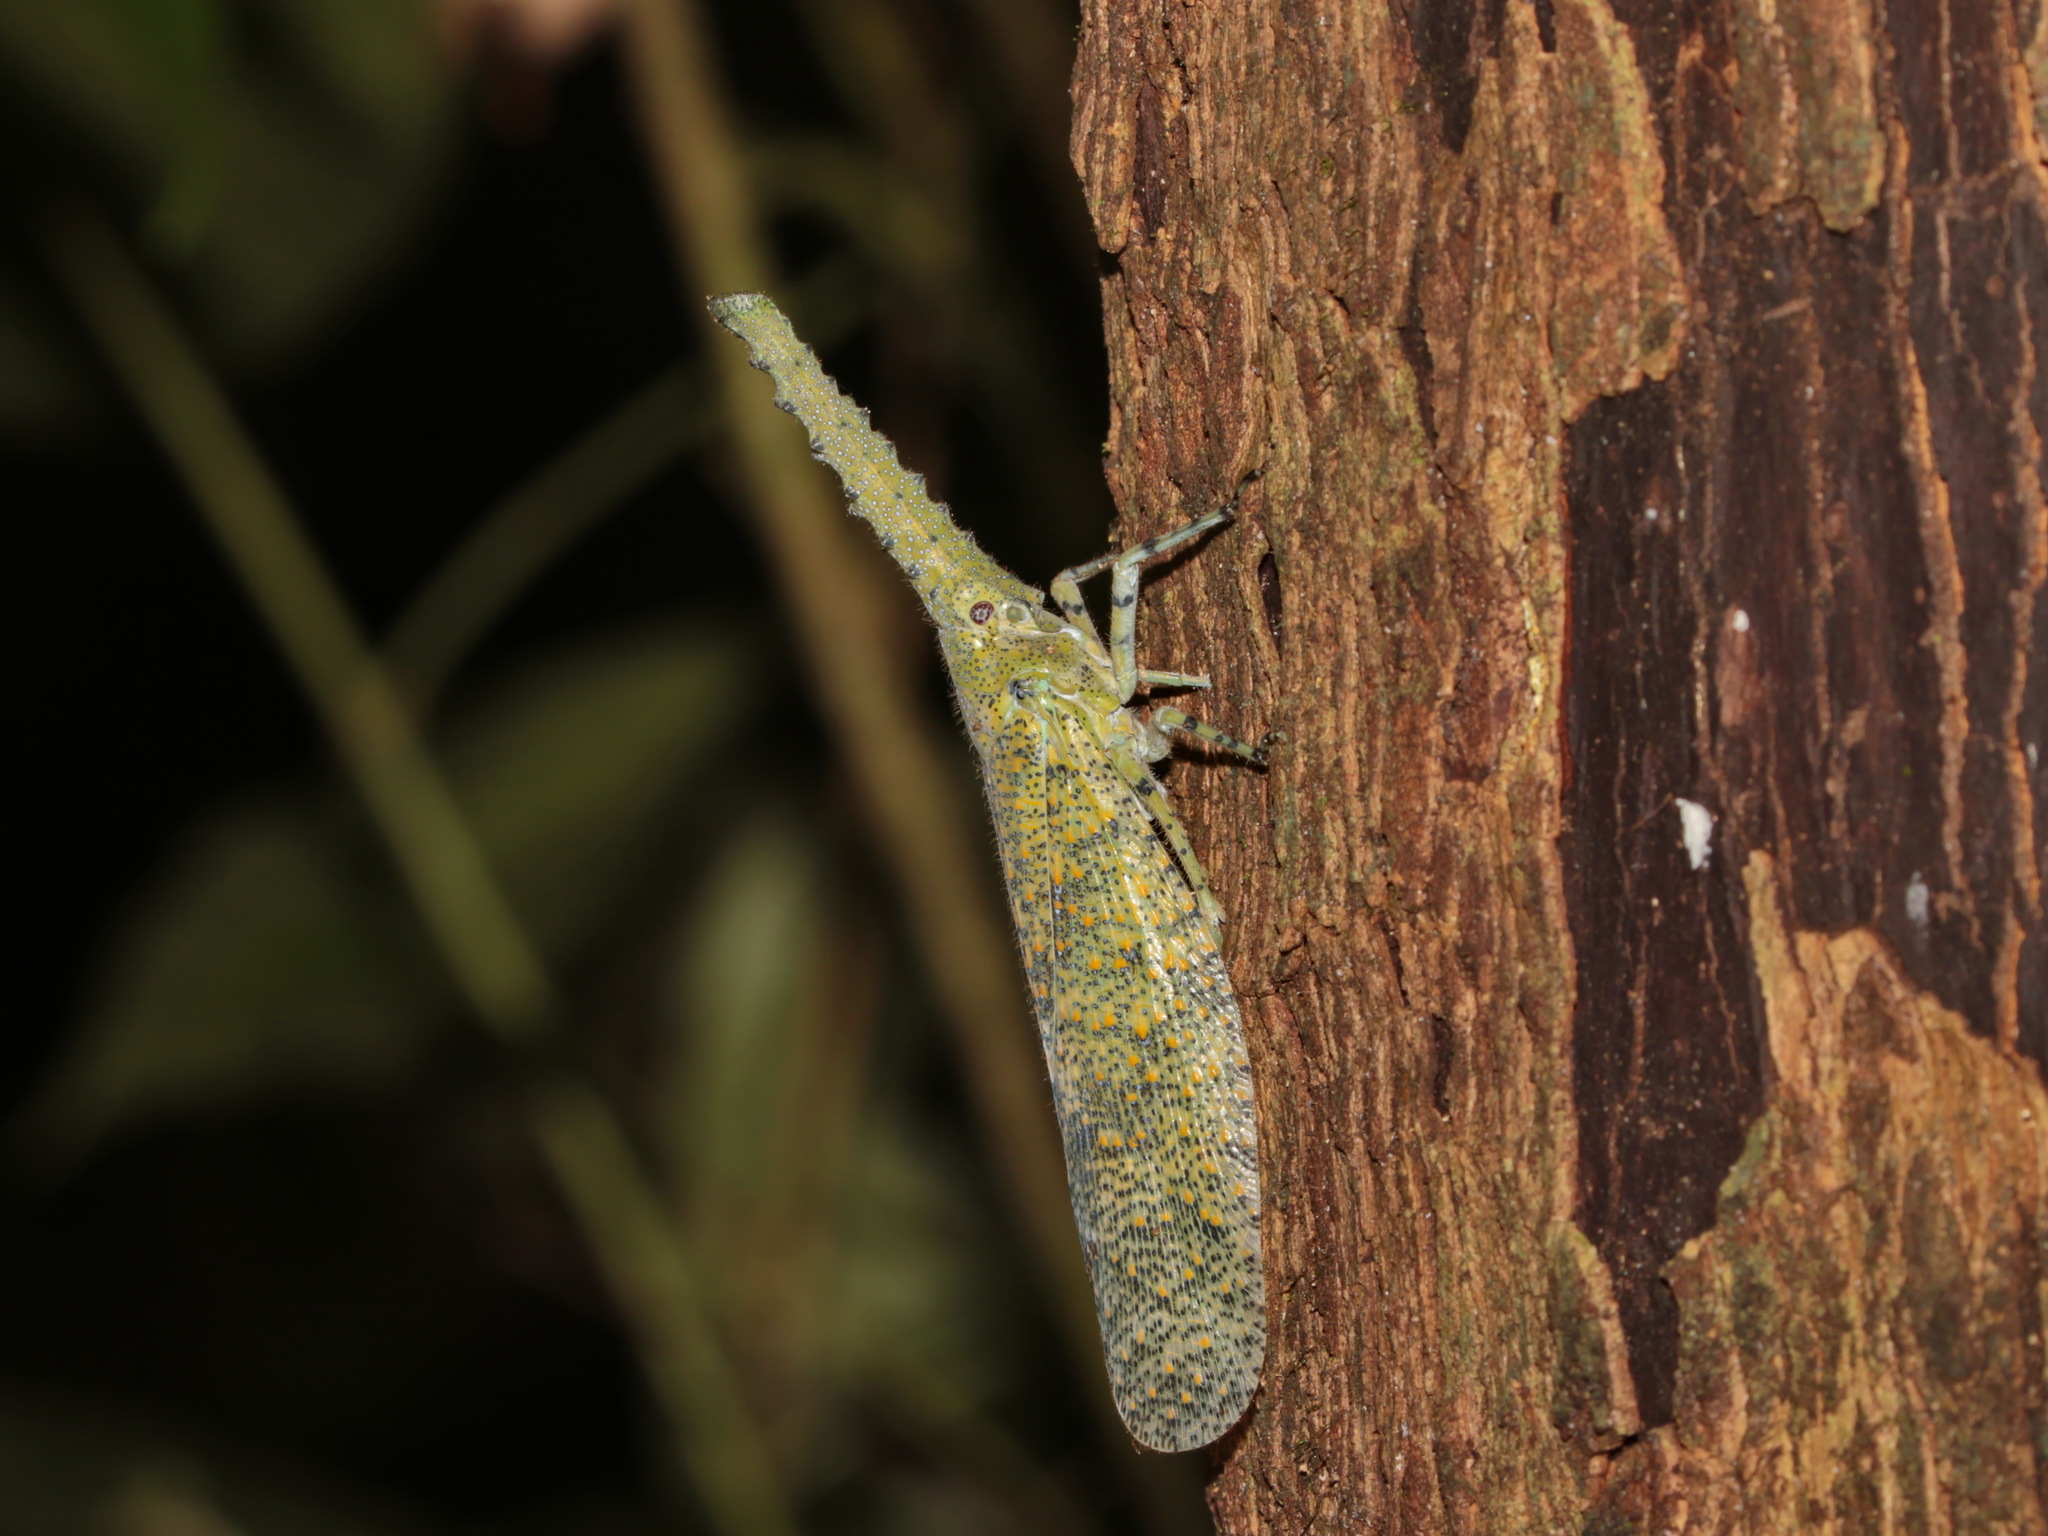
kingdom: Animalia
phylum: Arthropoda
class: Insecta
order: Hemiptera
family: Fulgoridae
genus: Zanna
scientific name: Zanna nobilis
